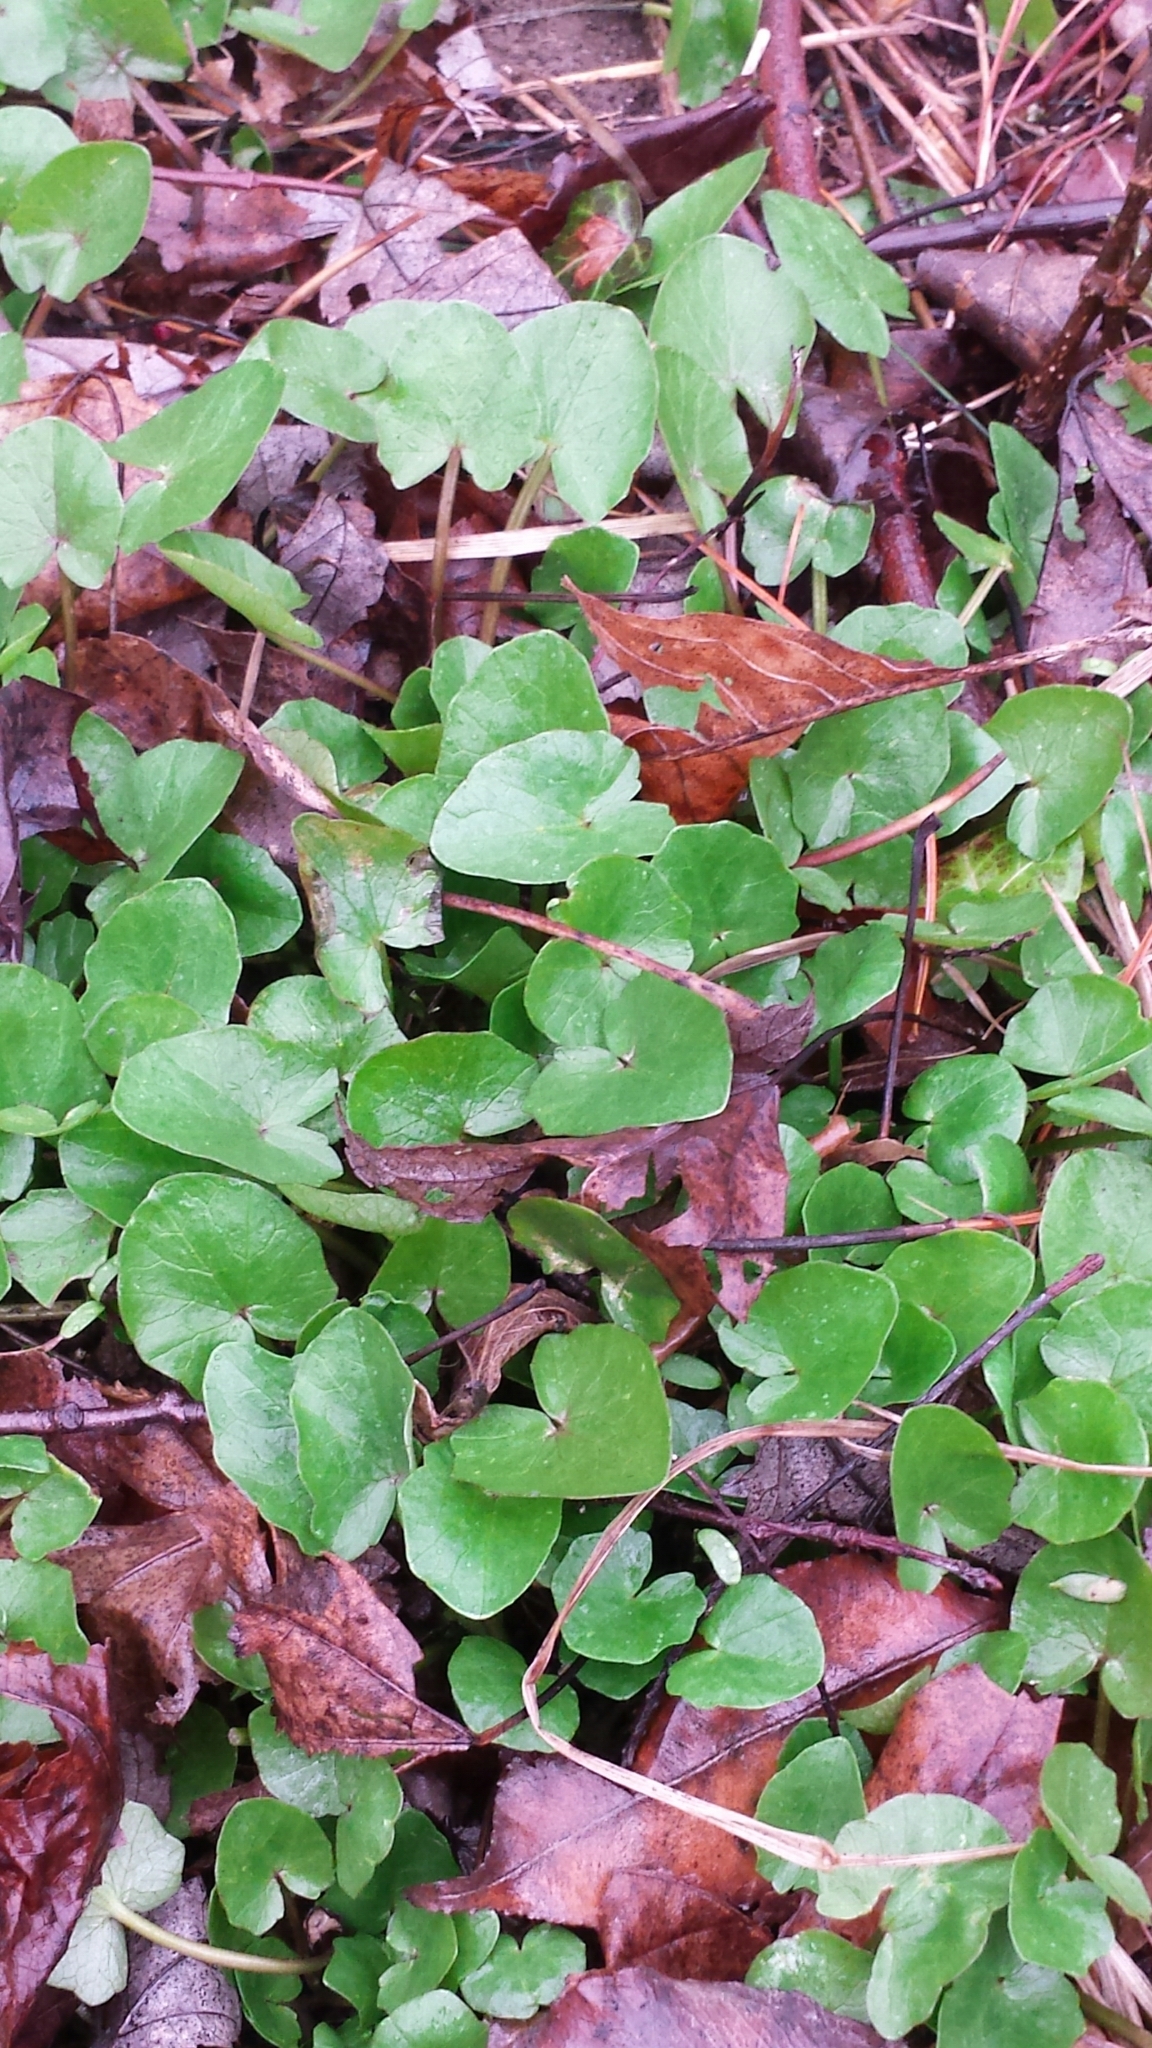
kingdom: Plantae
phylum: Tracheophyta
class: Magnoliopsida
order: Ranunculales
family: Ranunculaceae
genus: Ficaria
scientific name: Ficaria verna
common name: Lesser celandine
